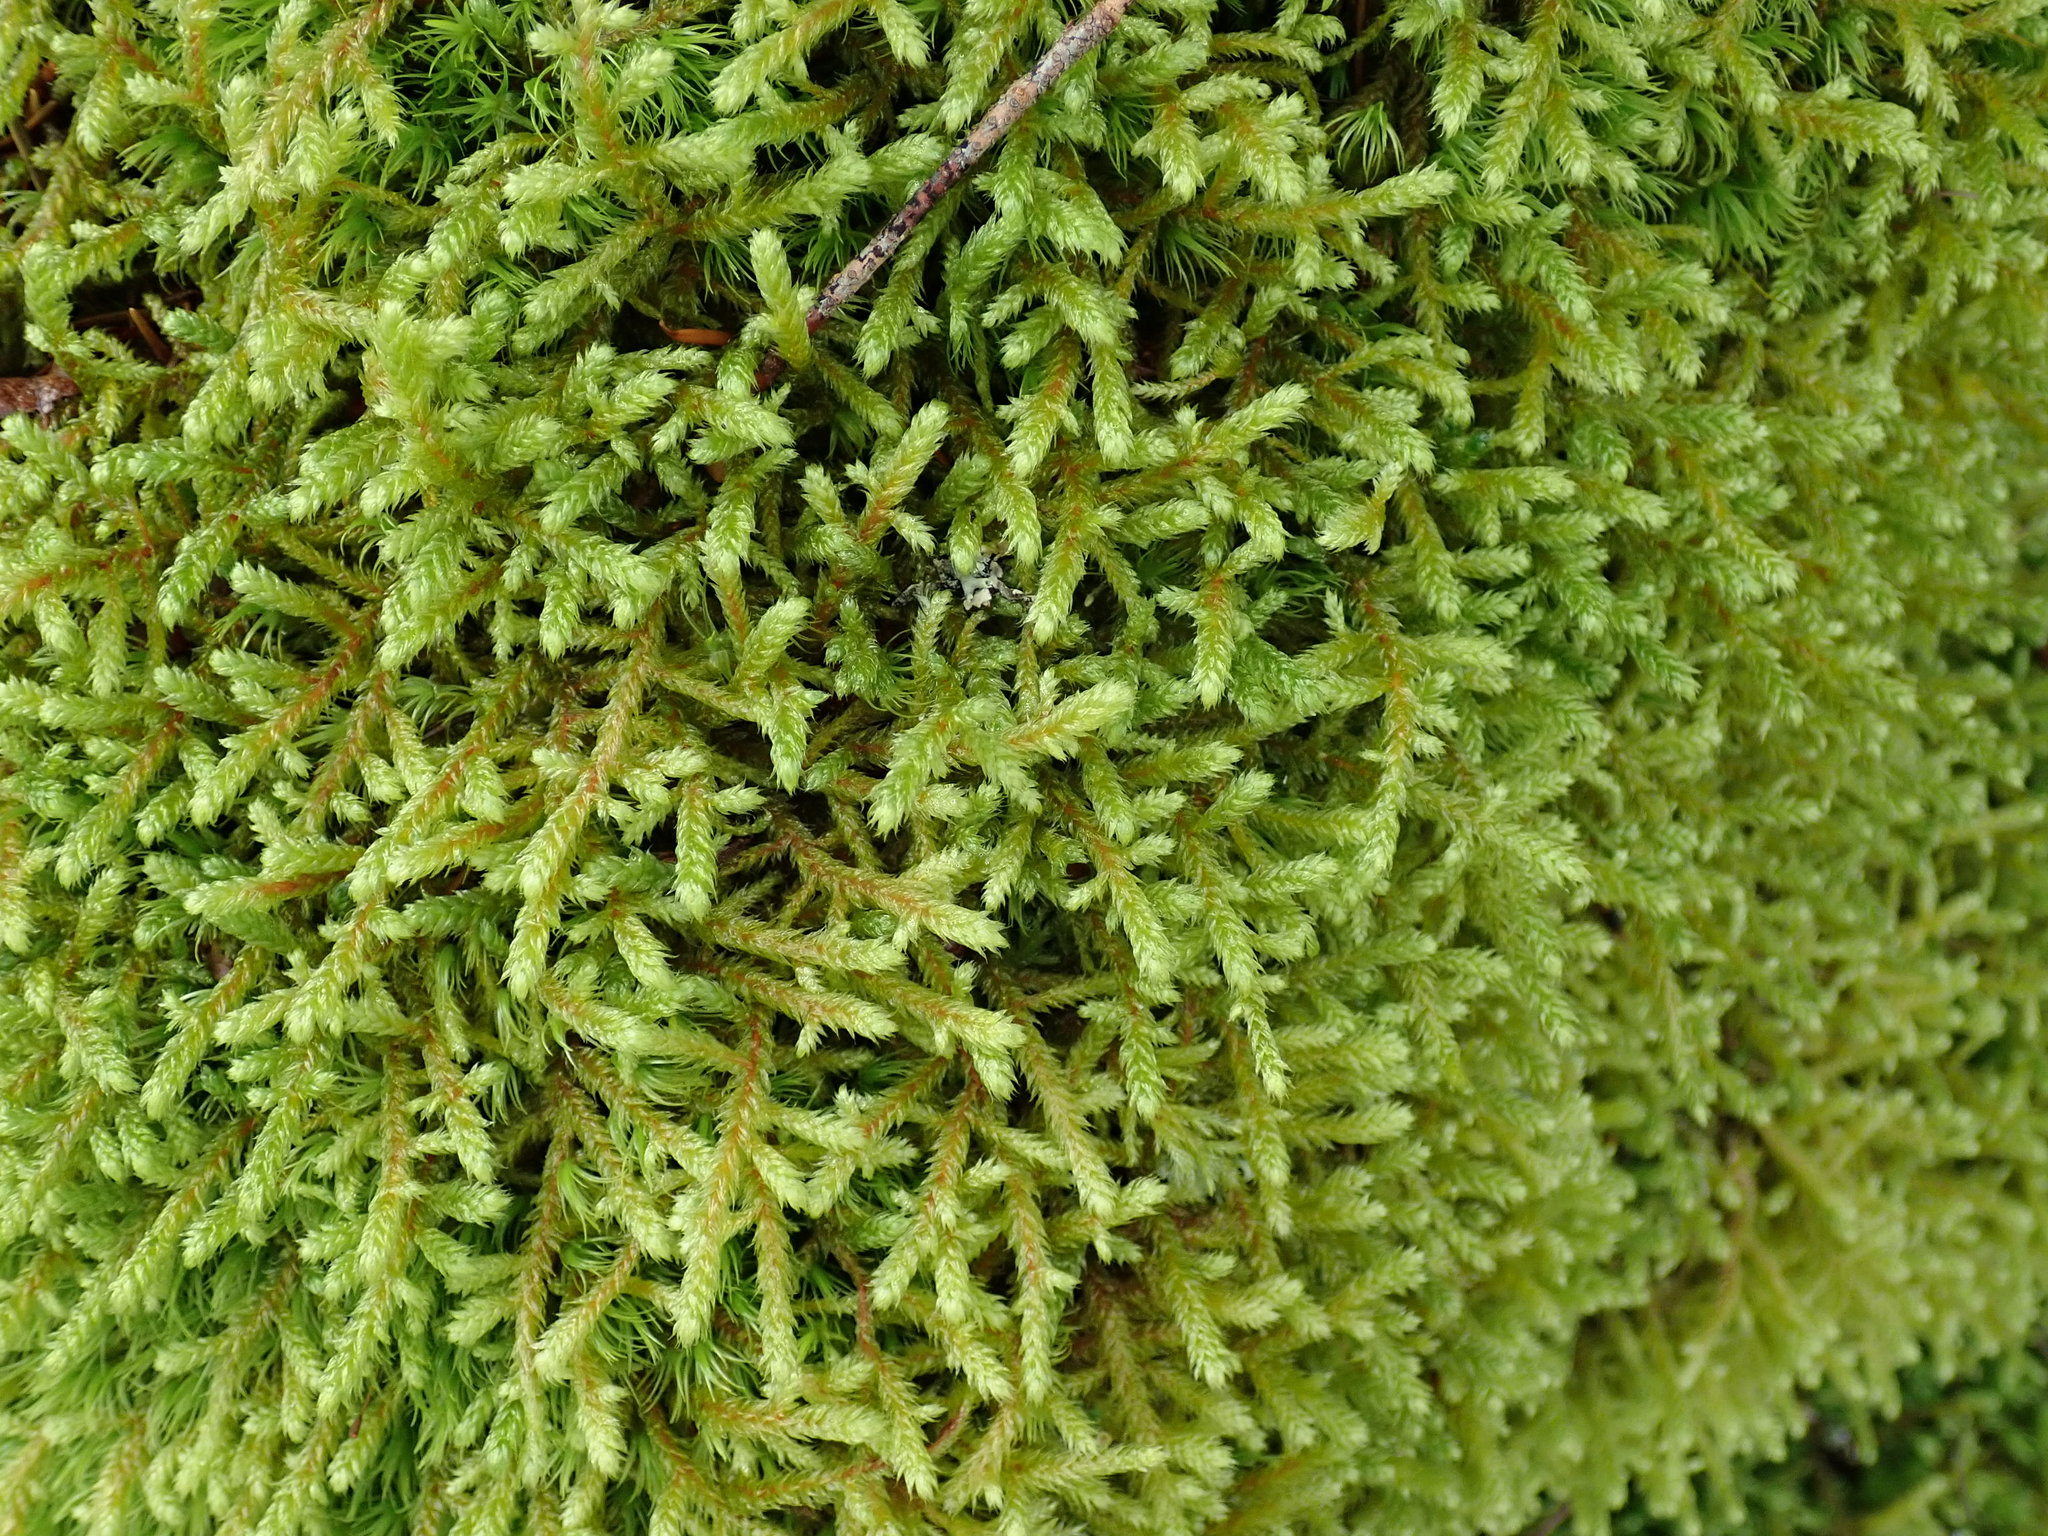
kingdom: Plantae
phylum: Bryophyta
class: Bryopsida
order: Hypnales
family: Antitrichiaceae
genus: Antitrichia
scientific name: Antitrichia curtipendula
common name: Pendulous wing-moss
